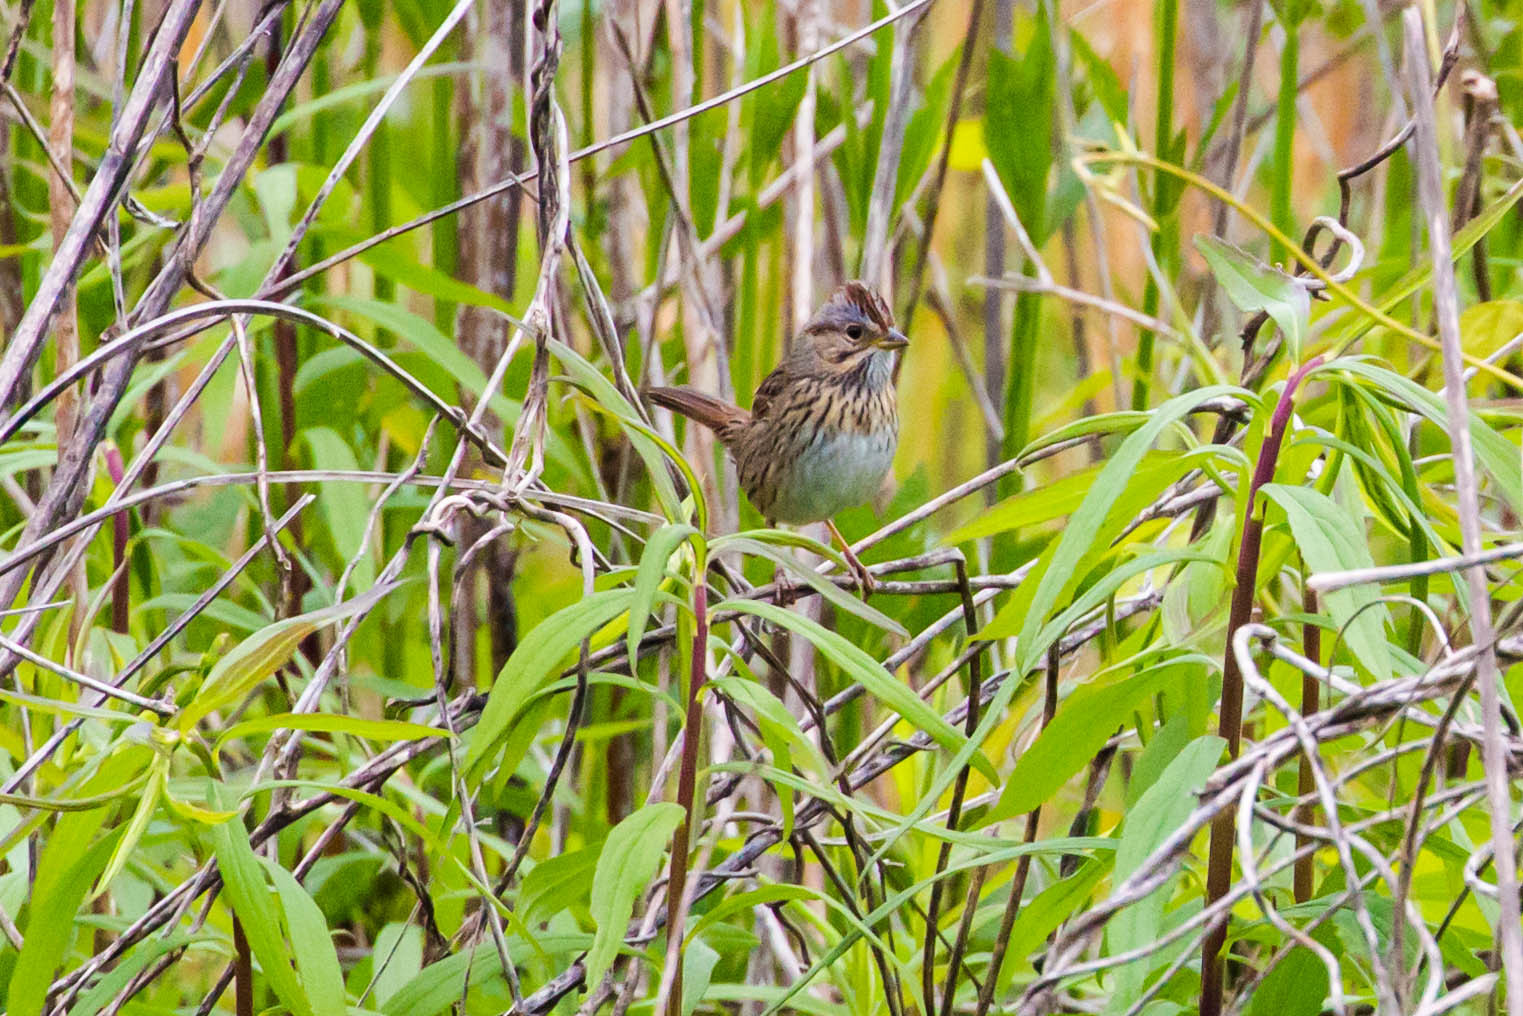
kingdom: Animalia
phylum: Chordata
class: Aves
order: Passeriformes
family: Passerellidae
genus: Melospiza
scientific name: Melospiza lincolnii
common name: Lincoln's sparrow
